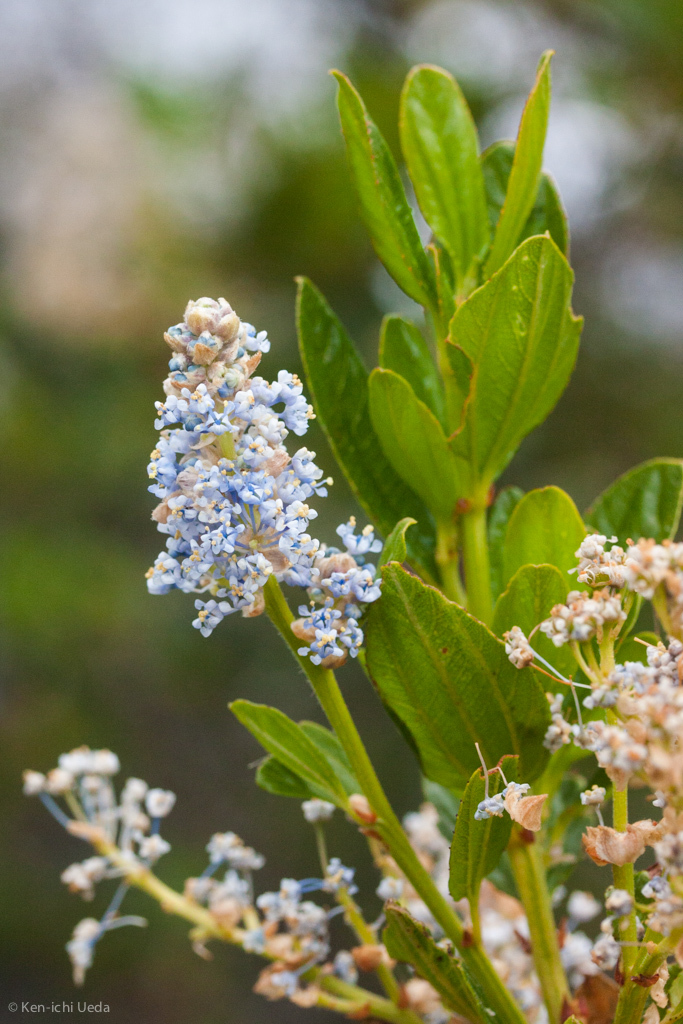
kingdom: Plantae
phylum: Tracheophyta
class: Magnoliopsida
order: Rosales
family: Rhamnaceae
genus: Ceanothus
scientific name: Ceanothus thyrsiflorus
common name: California-lilac
